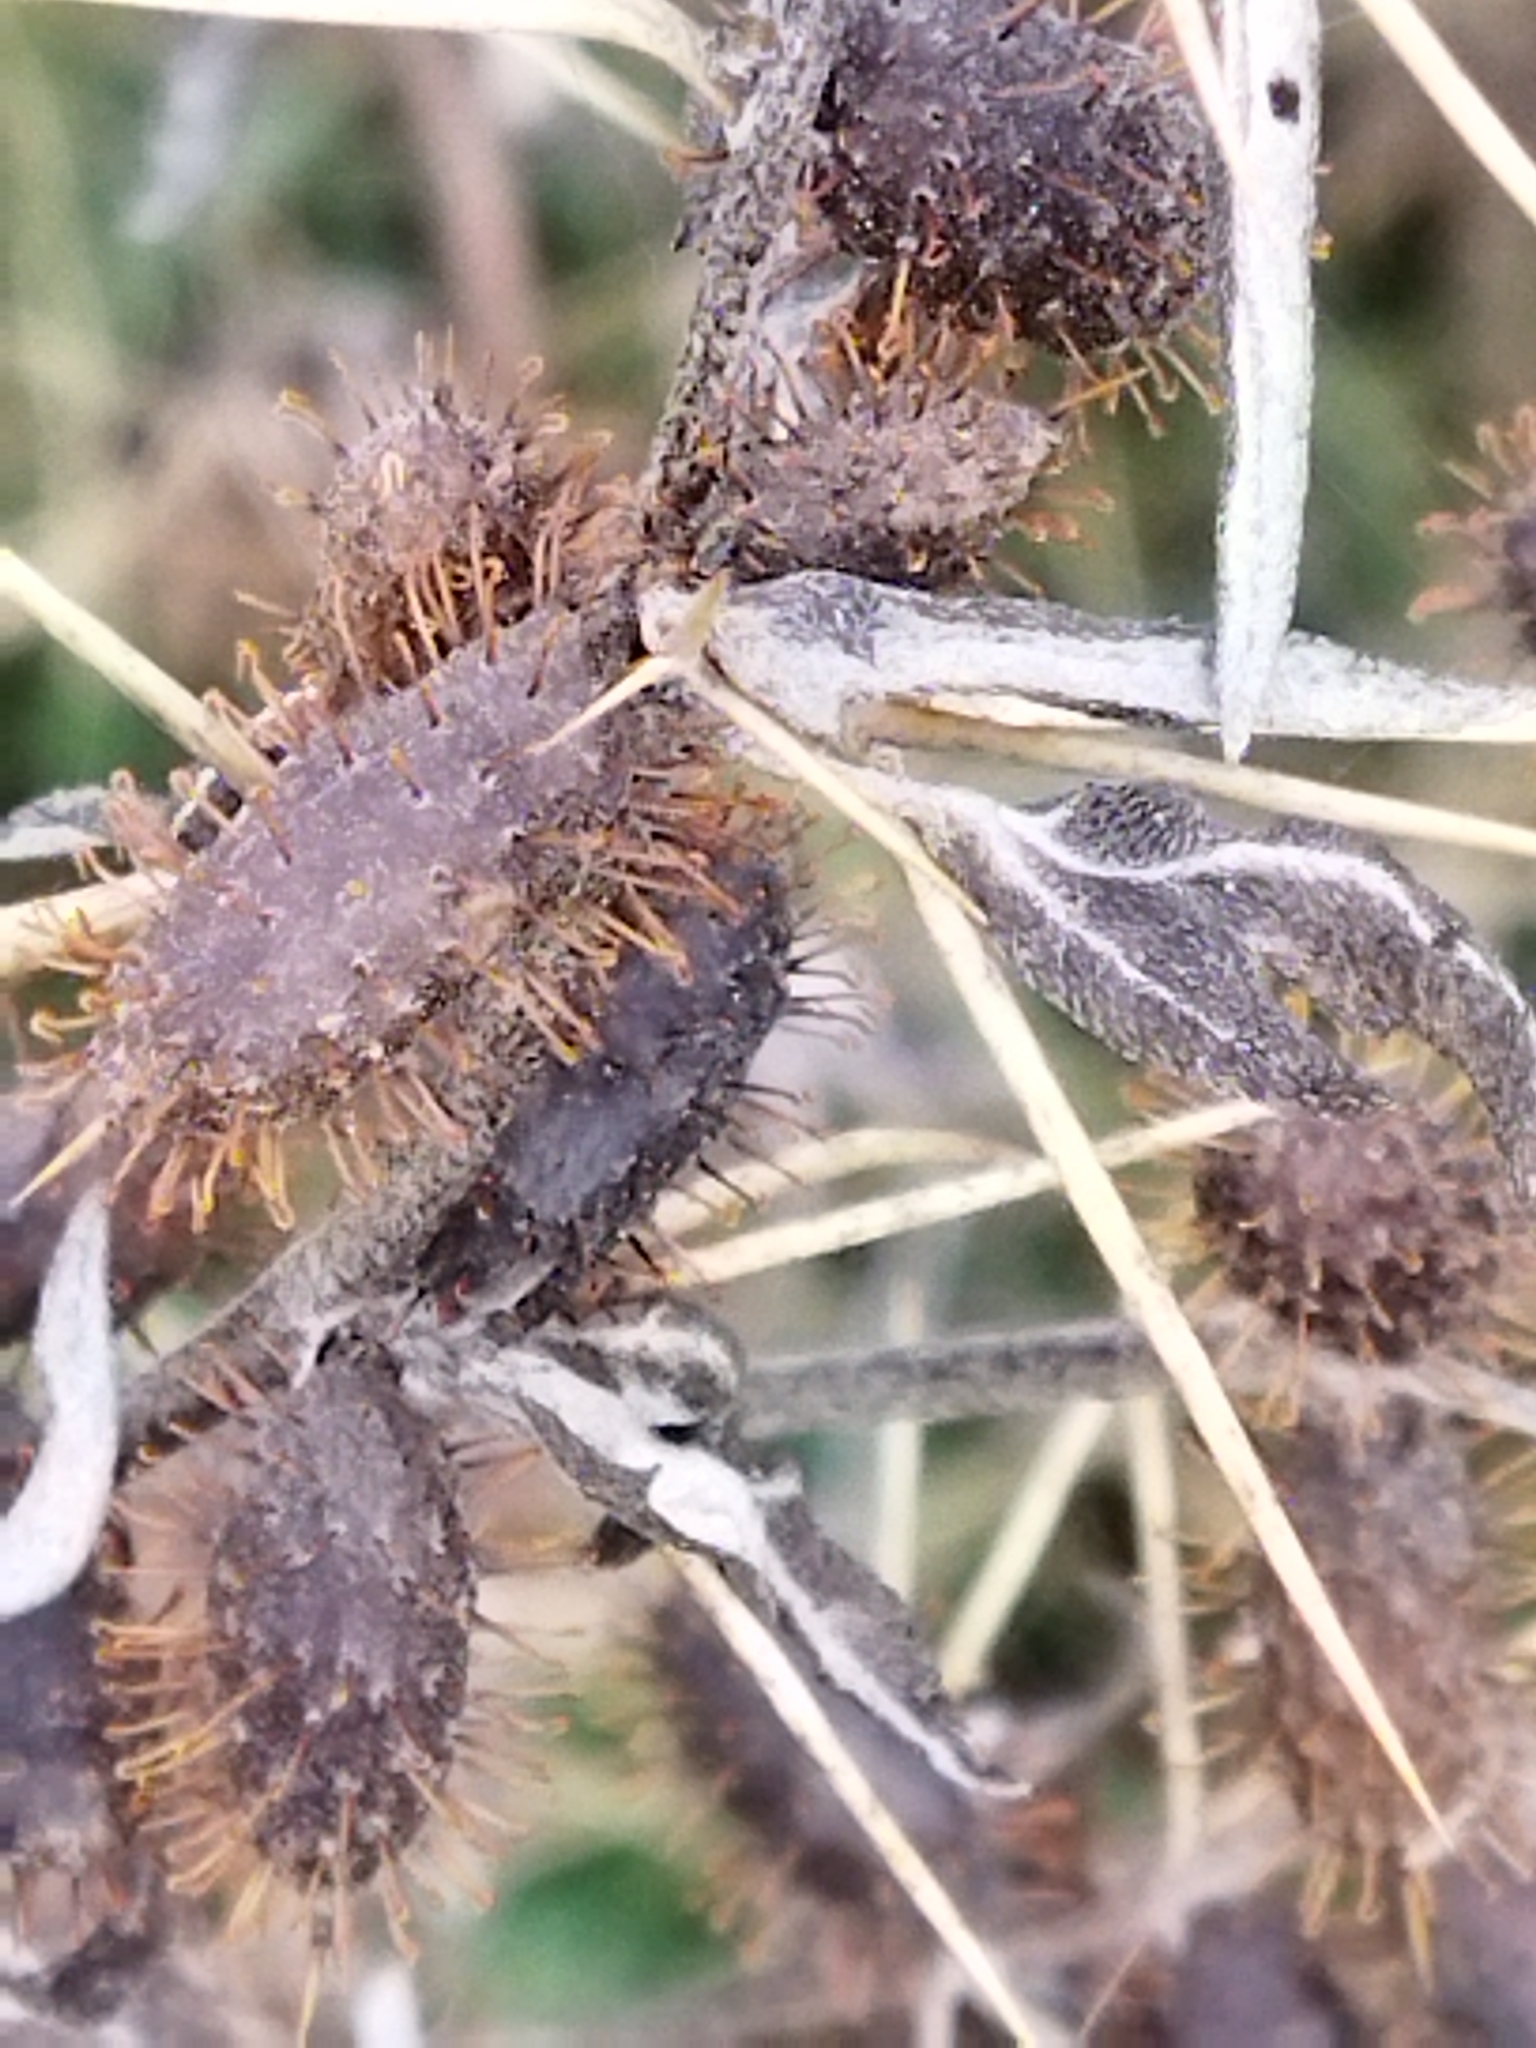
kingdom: Plantae
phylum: Tracheophyta
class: Magnoliopsida
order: Asterales
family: Asteraceae
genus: Xanthium
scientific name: Xanthium spinosum
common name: Spiny cocklebur
